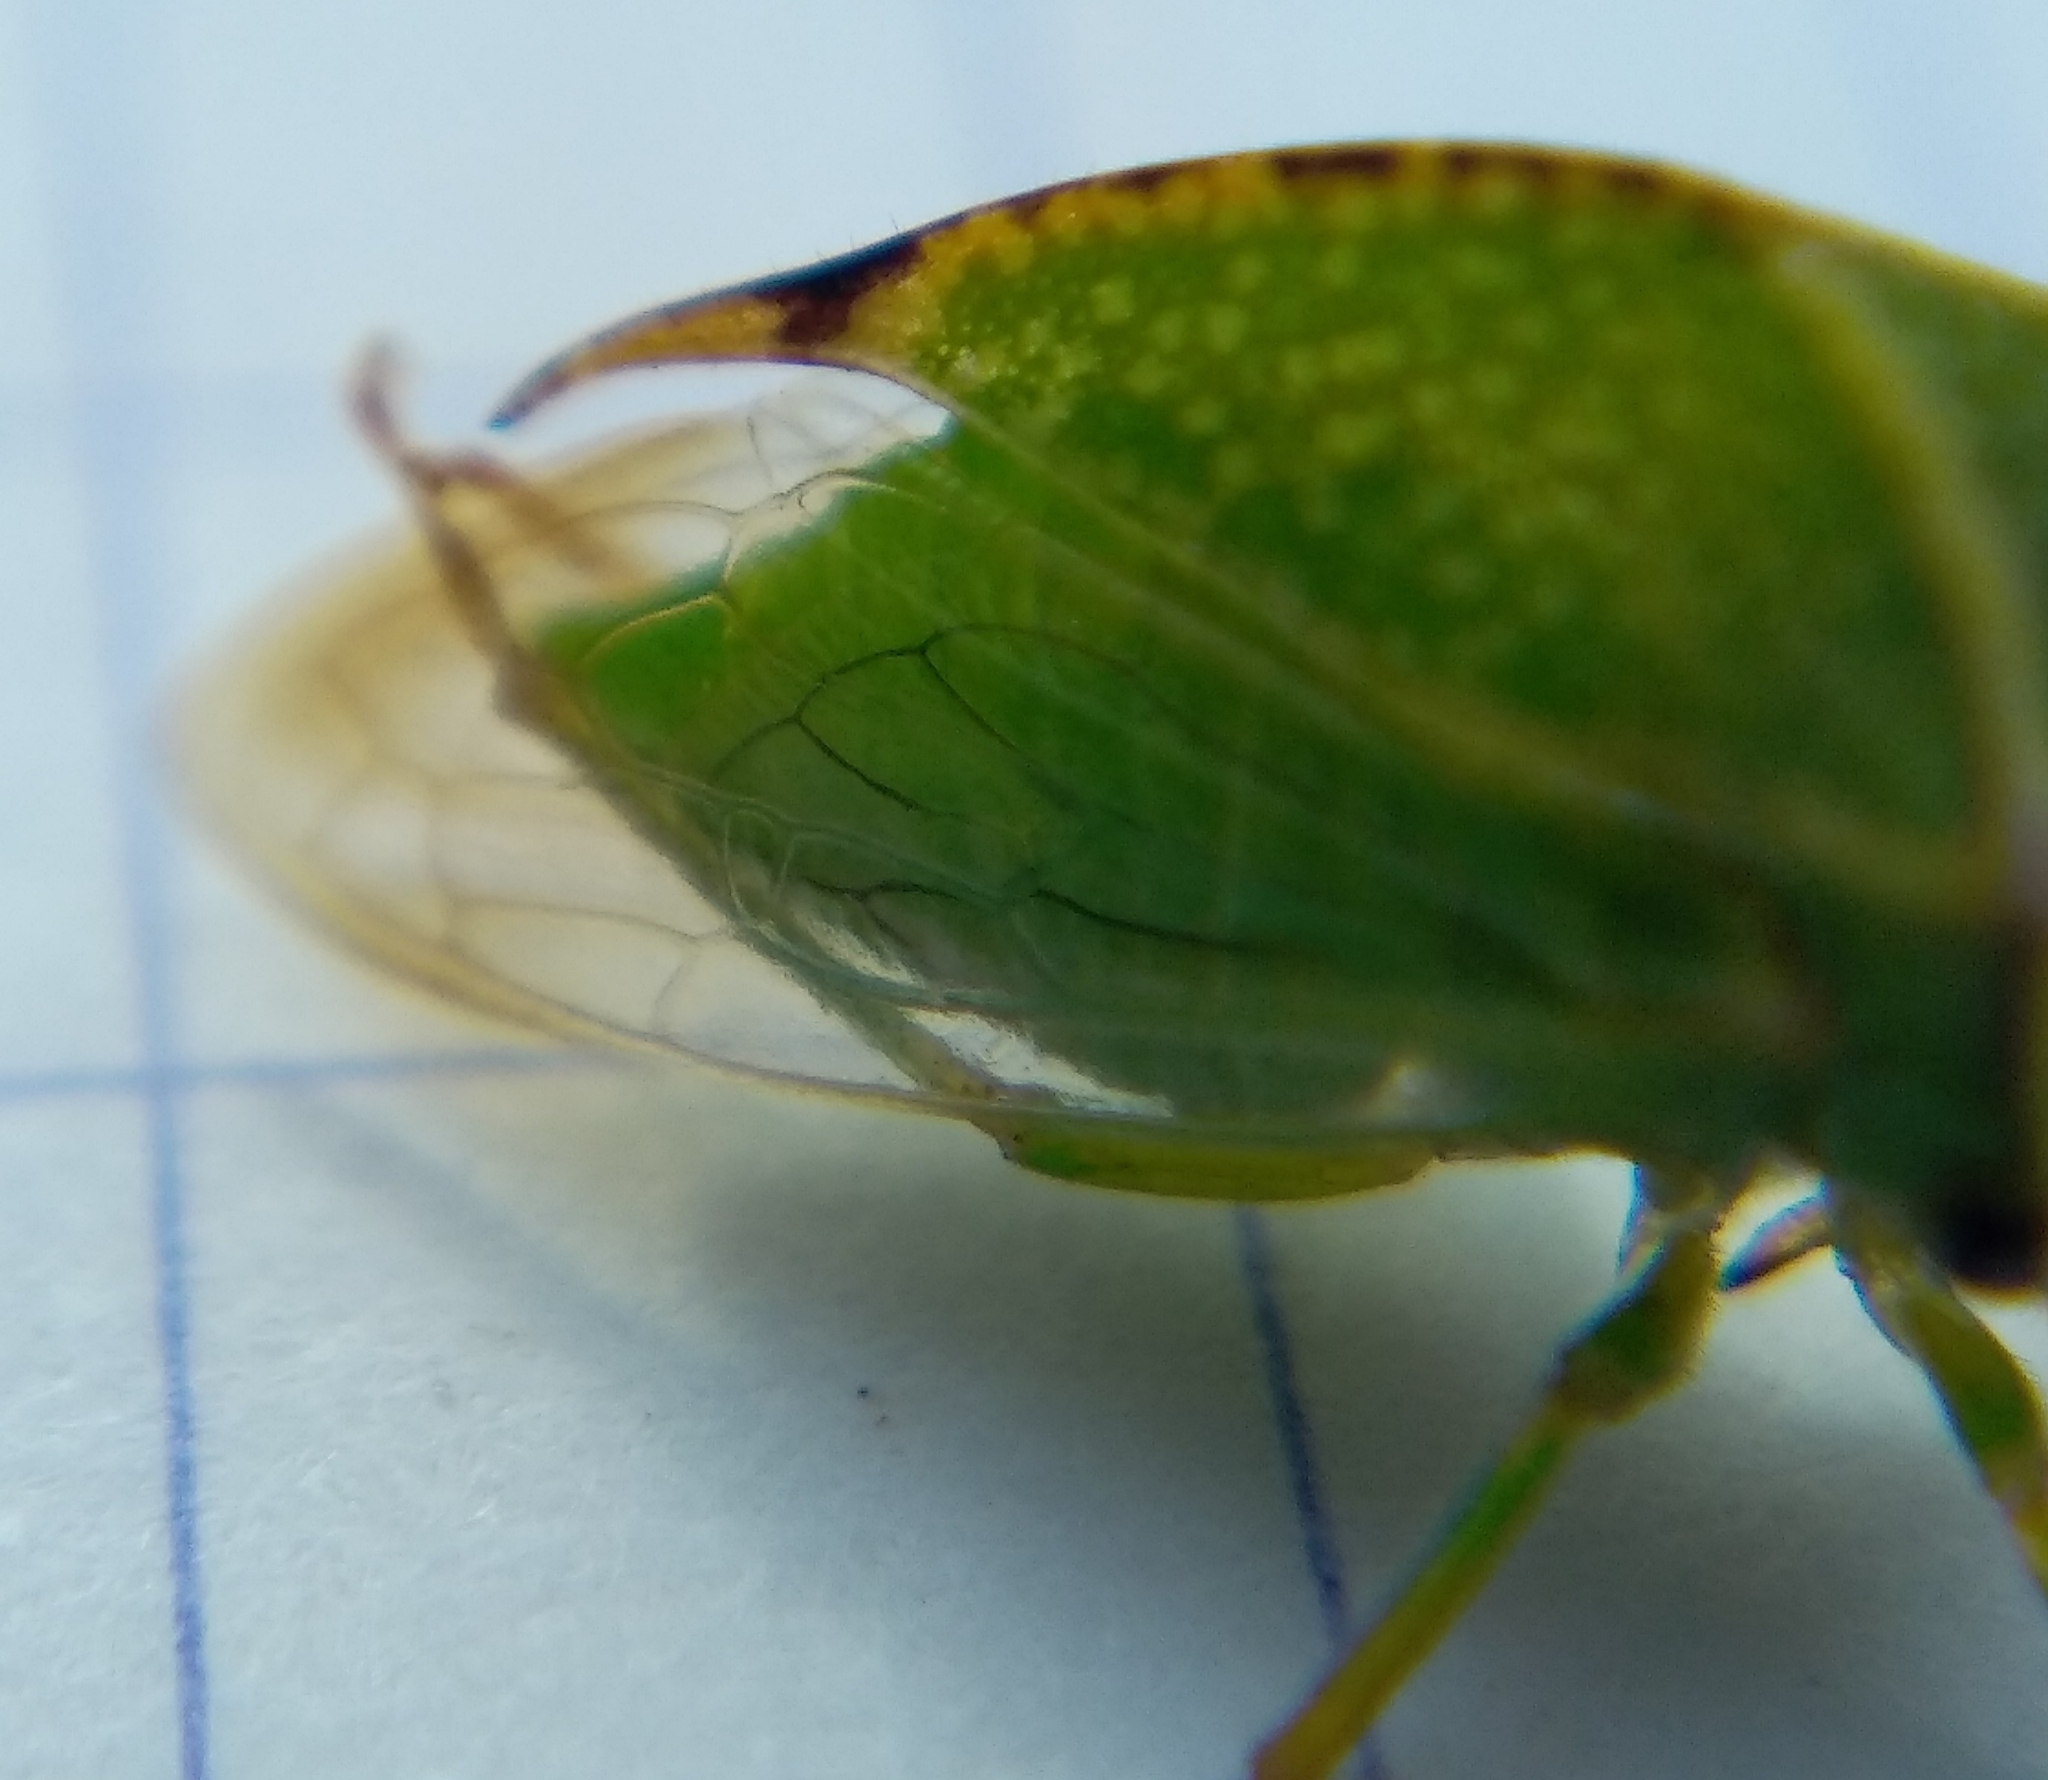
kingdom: Animalia
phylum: Arthropoda
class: Insecta
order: Hemiptera
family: Membracidae
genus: Stictocephala
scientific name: Stictocephala bisonia
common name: American buffalo treehopper
